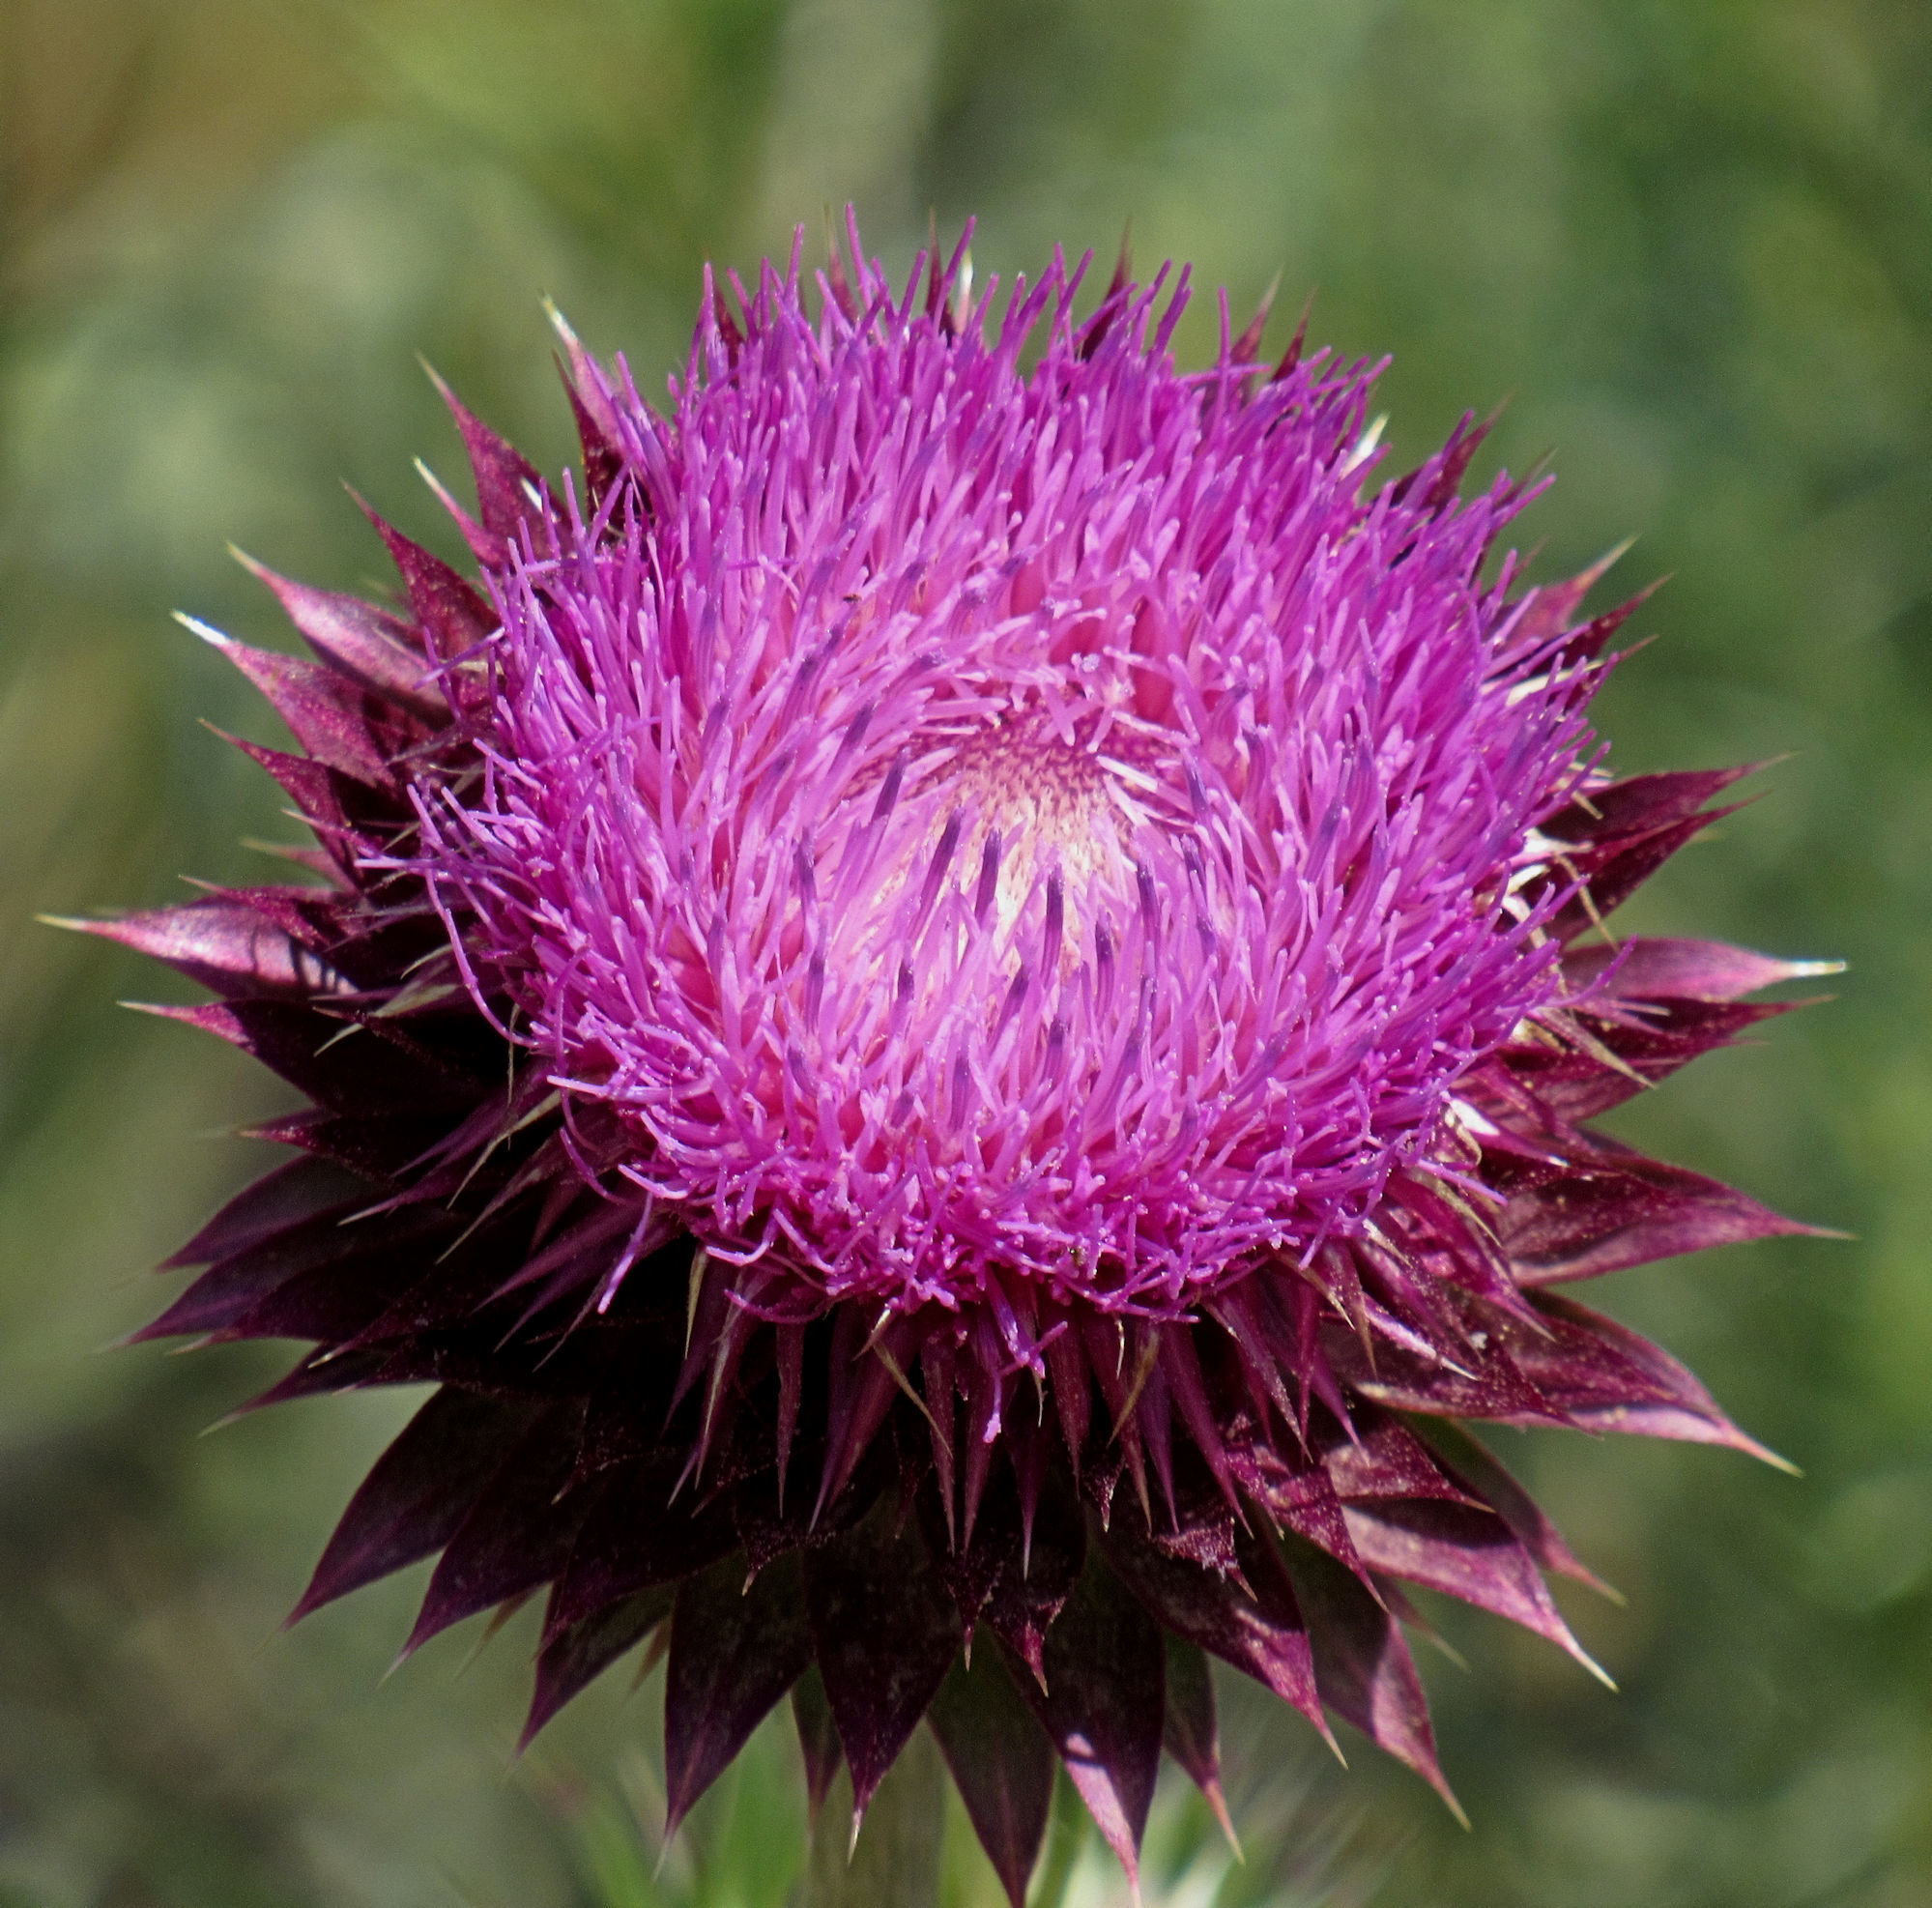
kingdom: Plantae
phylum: Tracheophyta
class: Magnoliopsida
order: Asterales
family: Asteraceae
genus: Carduus
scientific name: Carduus nutans
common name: Musk thistle
